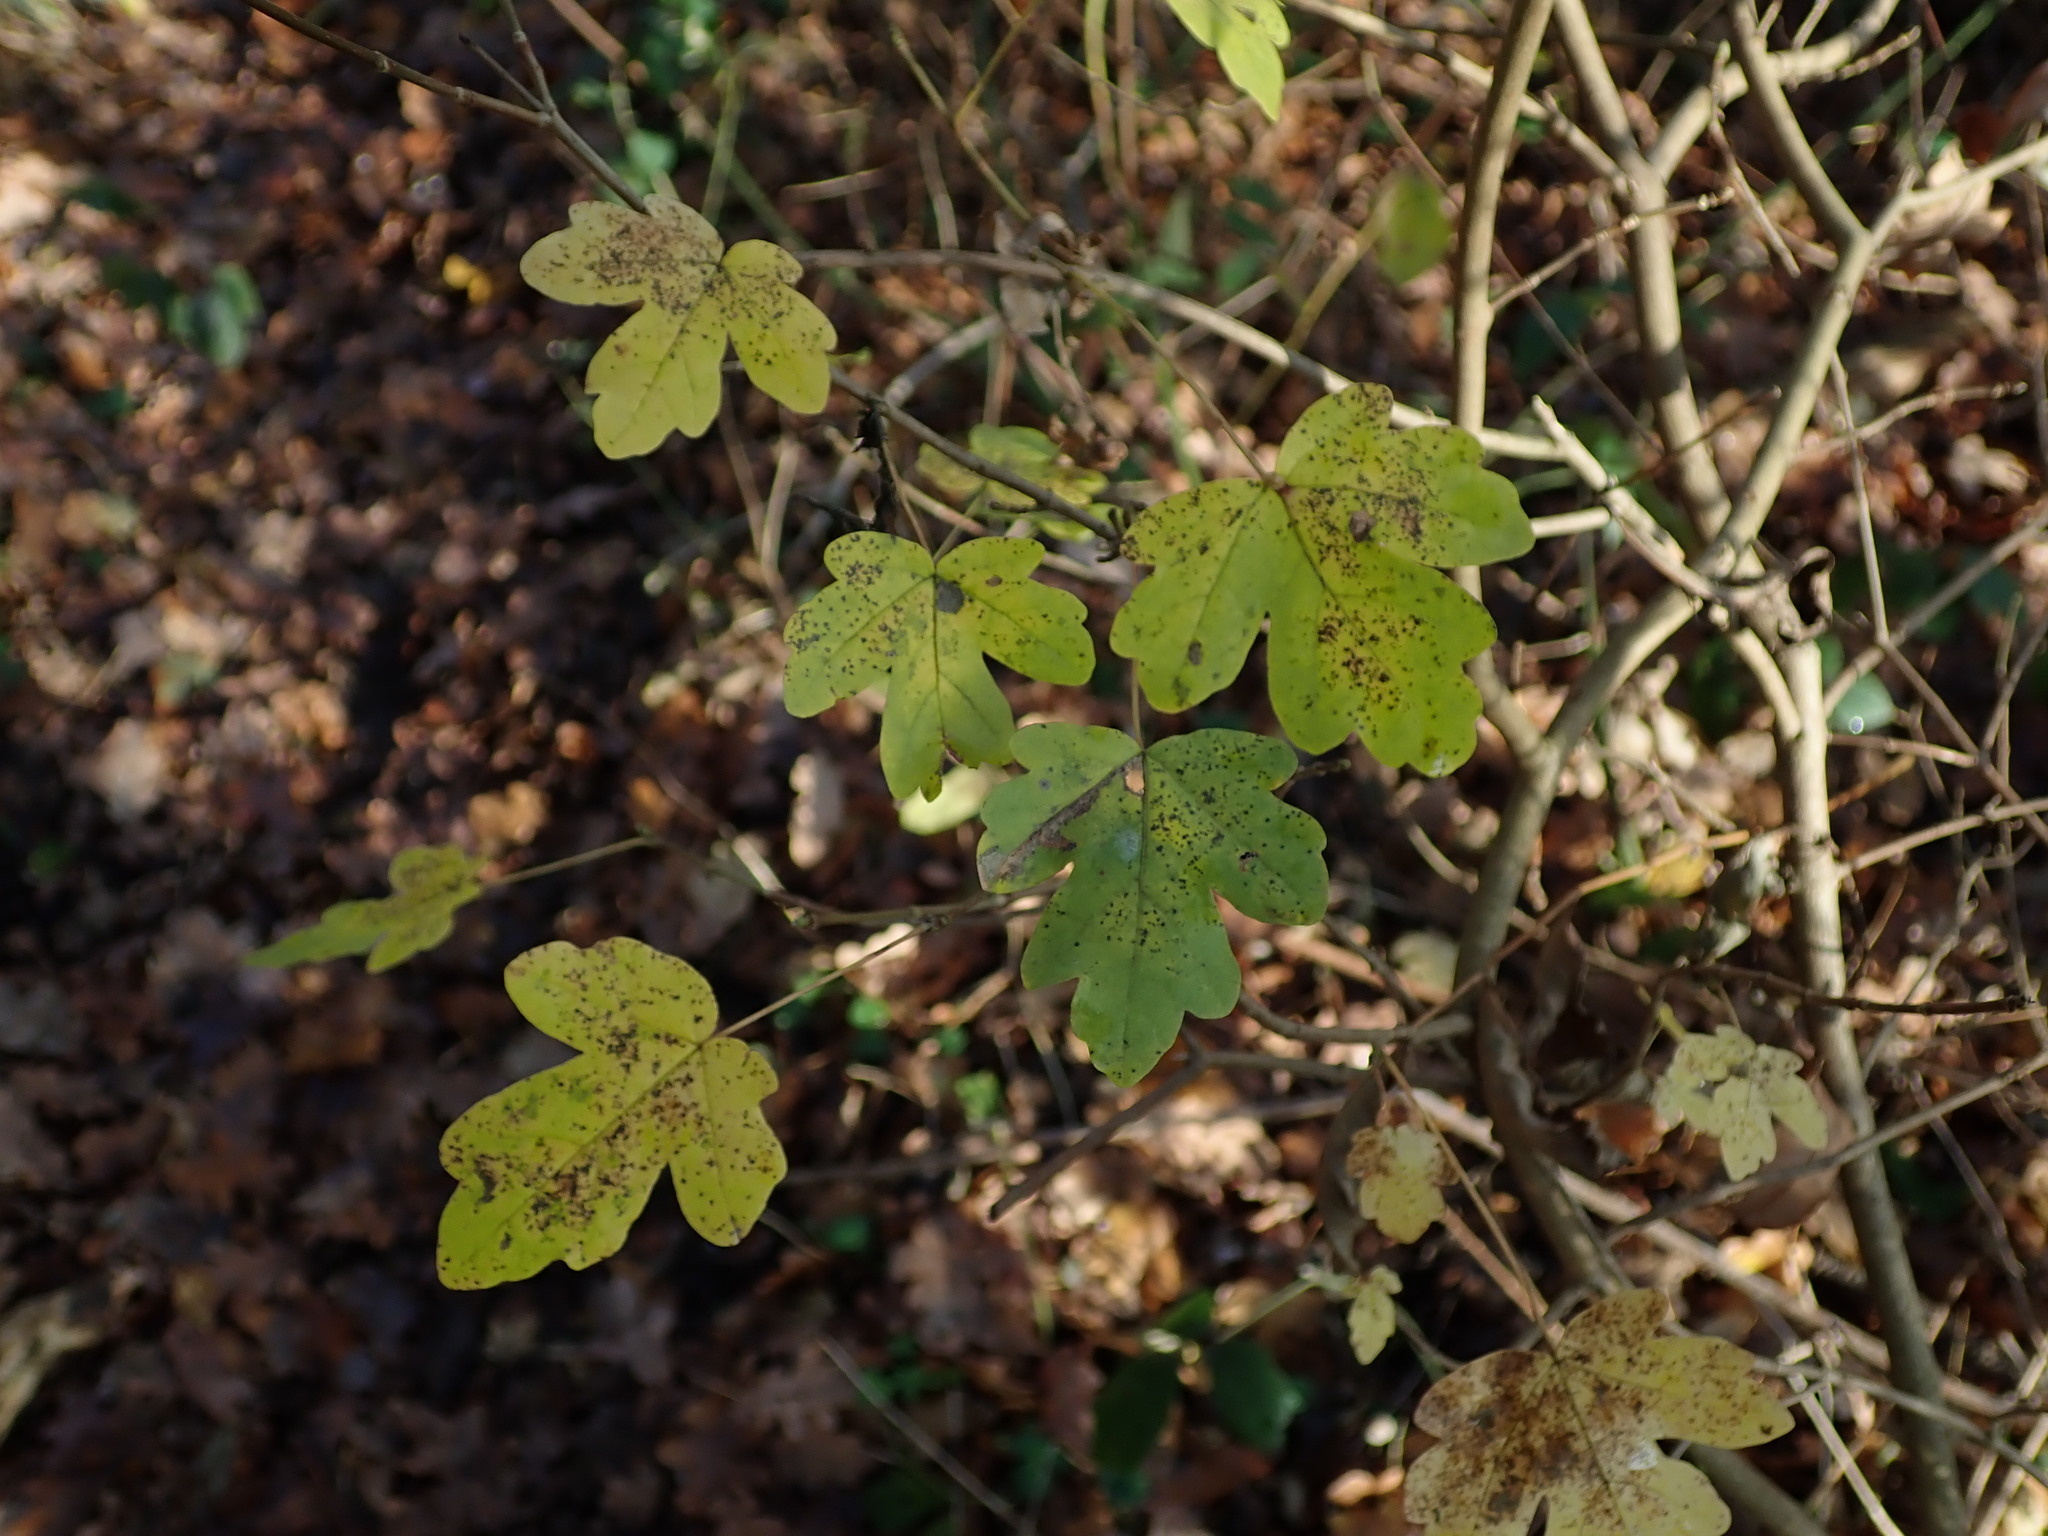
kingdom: Plantae
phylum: Tracheophyta
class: Magnoliopsida
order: Sapindales
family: Sapindaceae
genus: Acer
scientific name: Acer campestre
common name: Field maple
